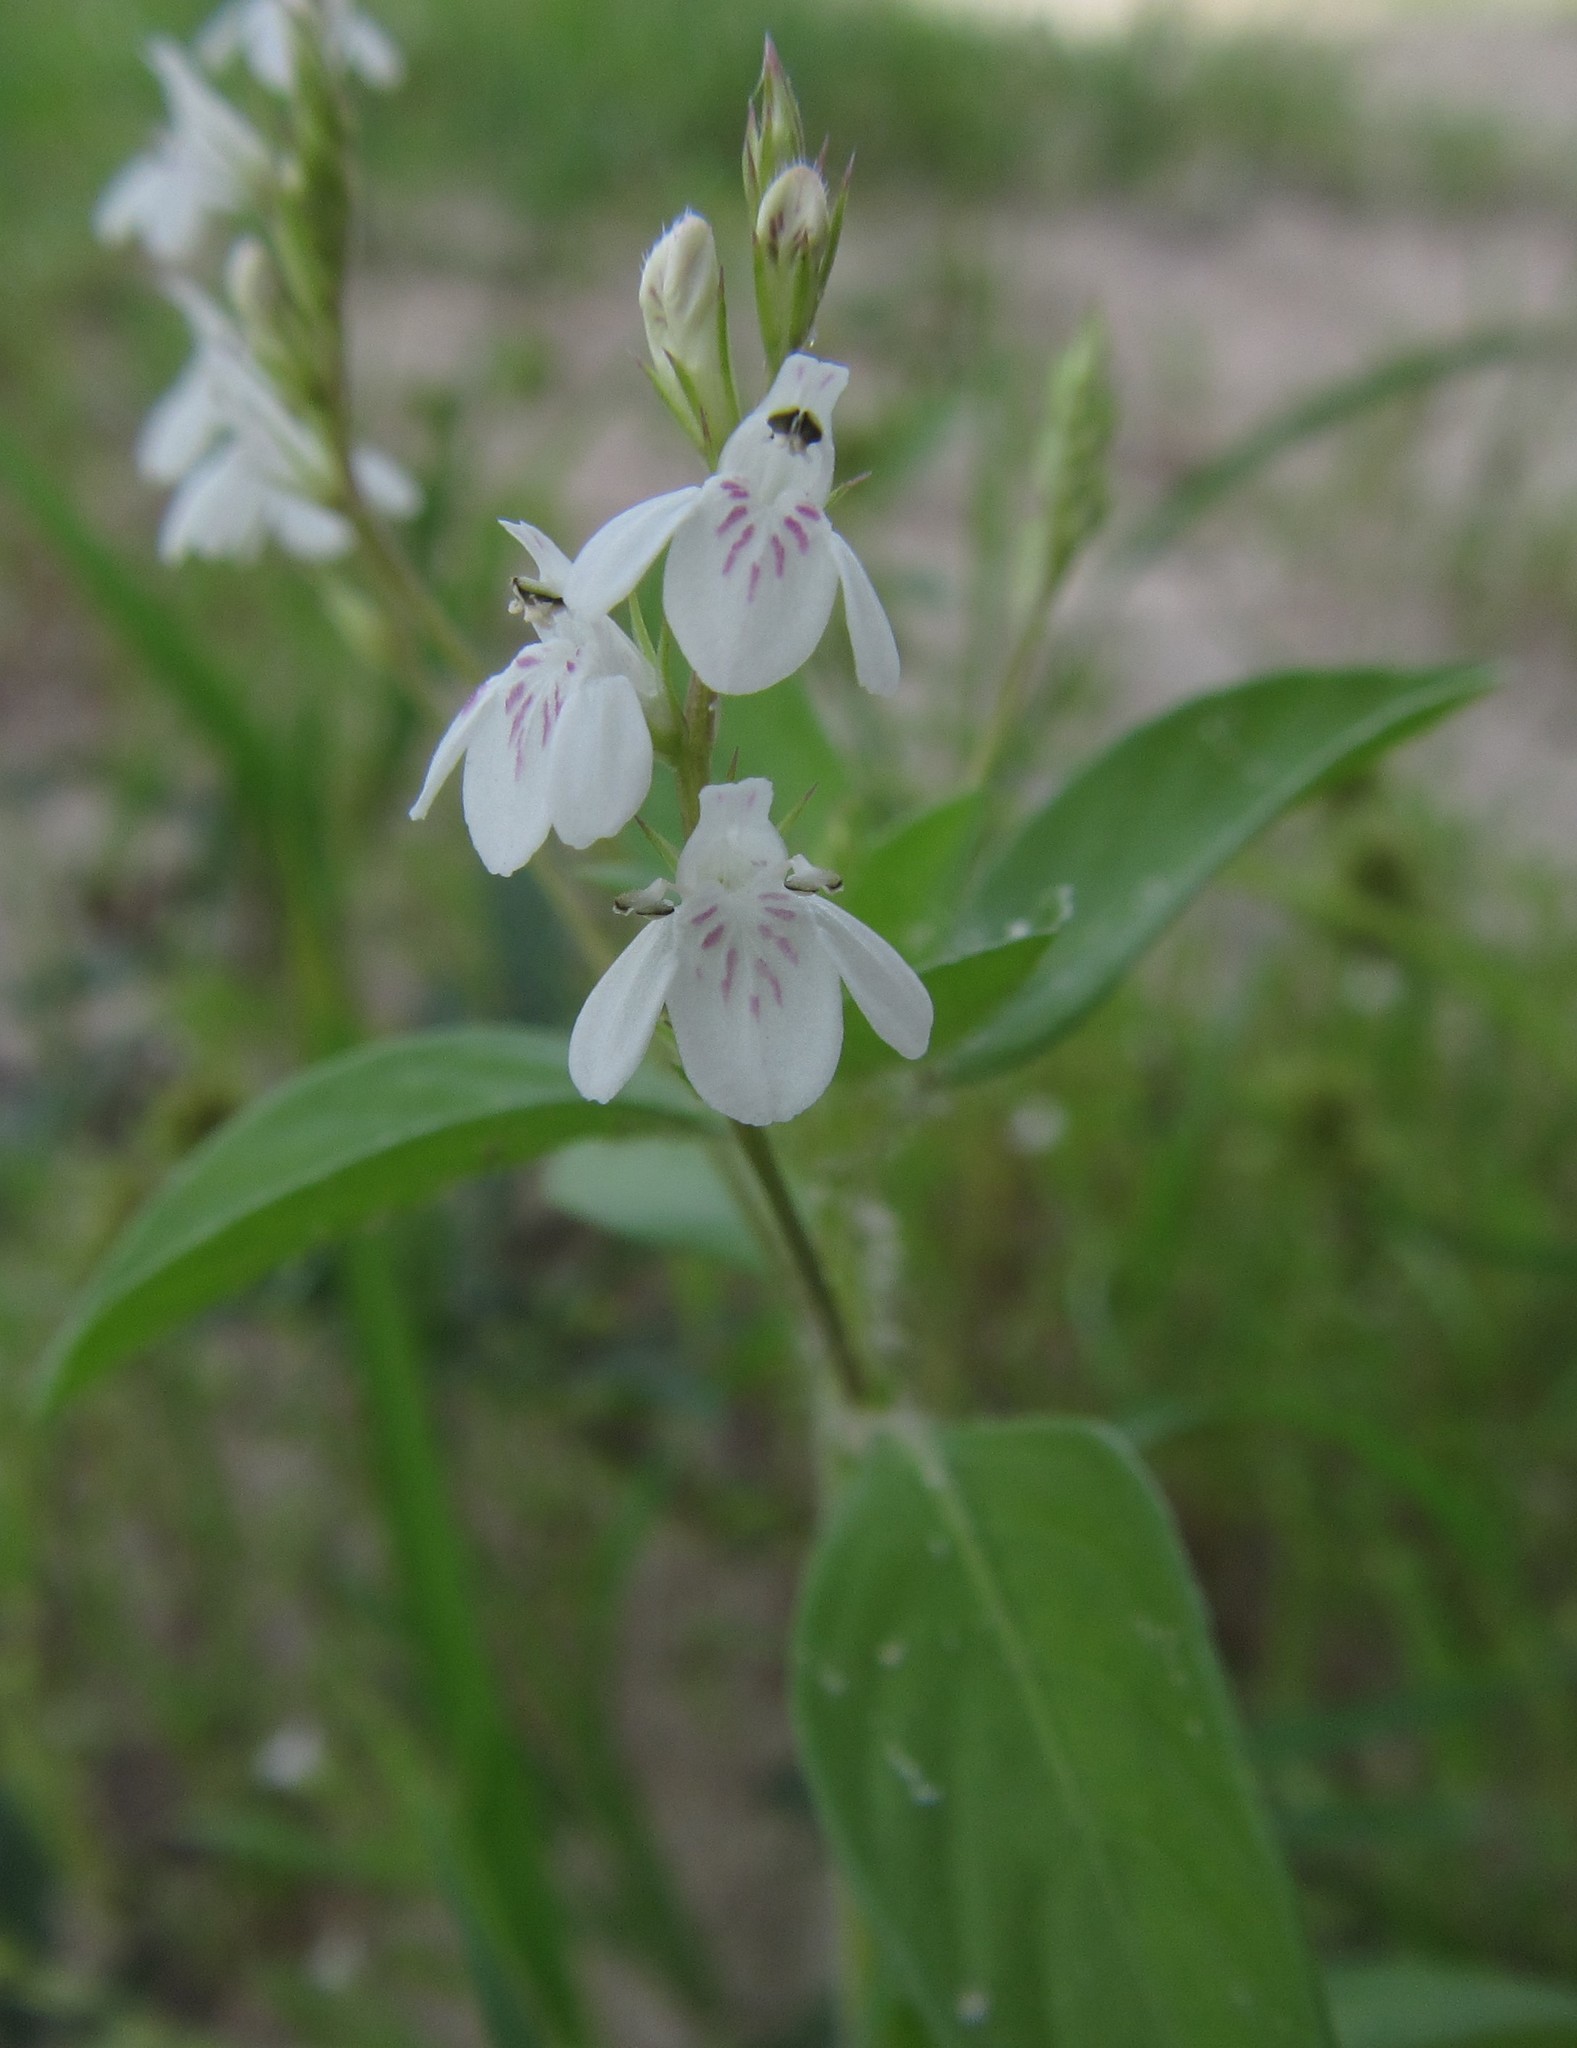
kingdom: Plantae
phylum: Tracheophyta
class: Magnoliopsida
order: Lamiales
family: Acanthaceae
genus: Justicia
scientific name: Justicia exigua
